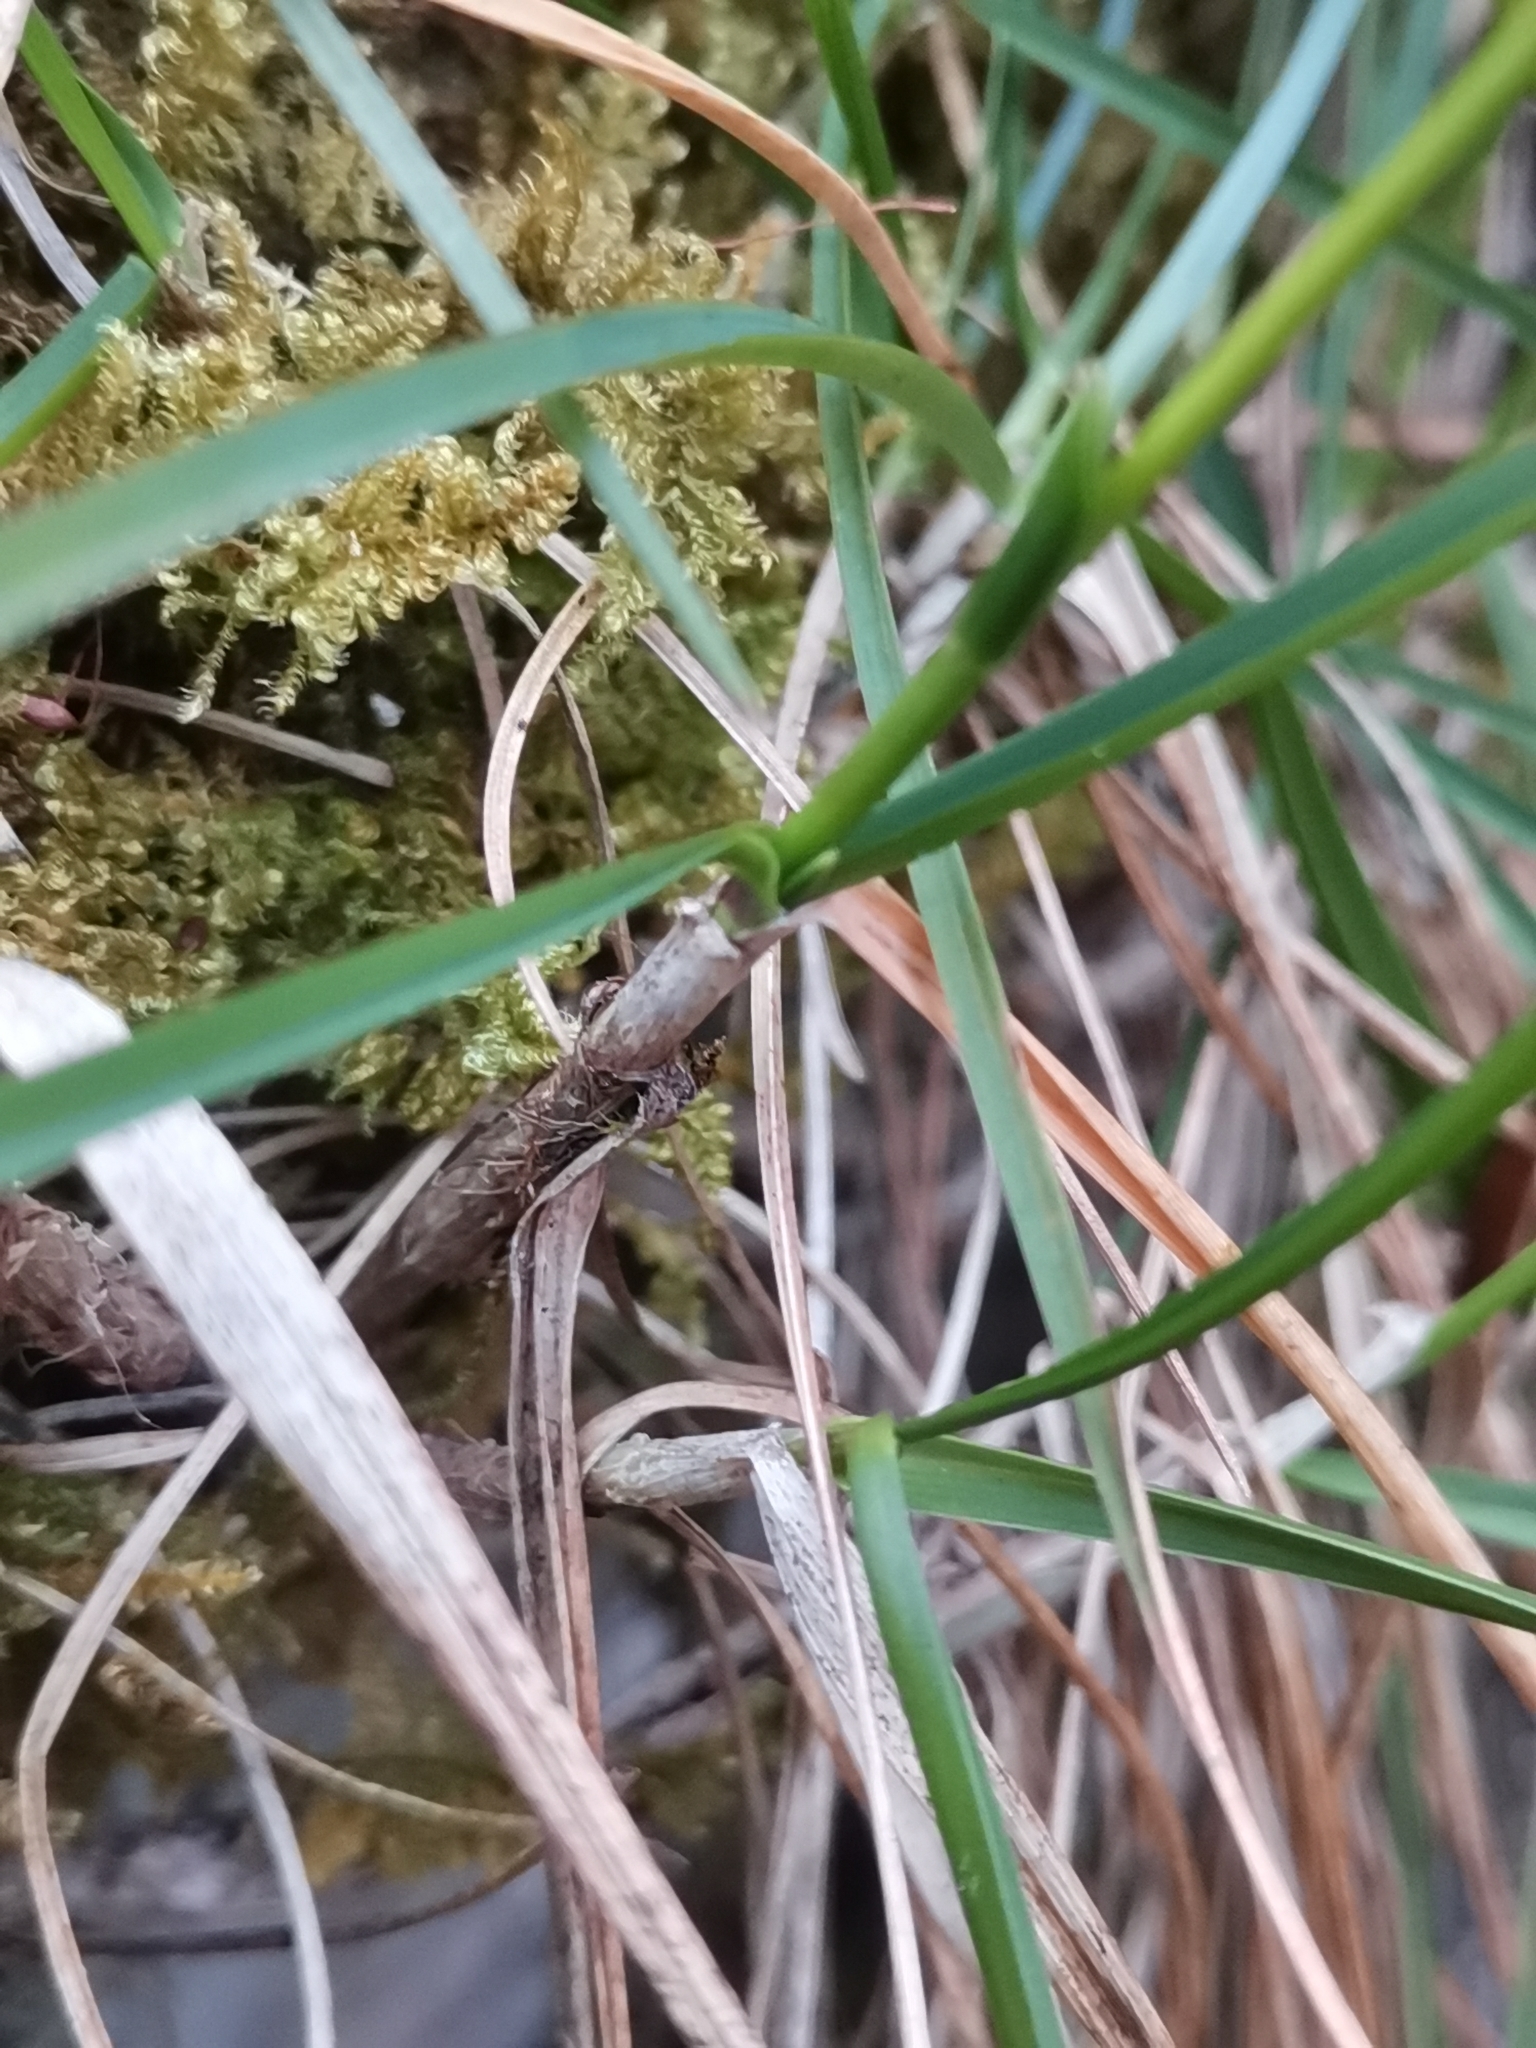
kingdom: Plantae
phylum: Tracheophyta
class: Liliopsida
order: Poales
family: Poaceae
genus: Sesleria
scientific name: Sesleria caerulea
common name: Blue moor-grass
